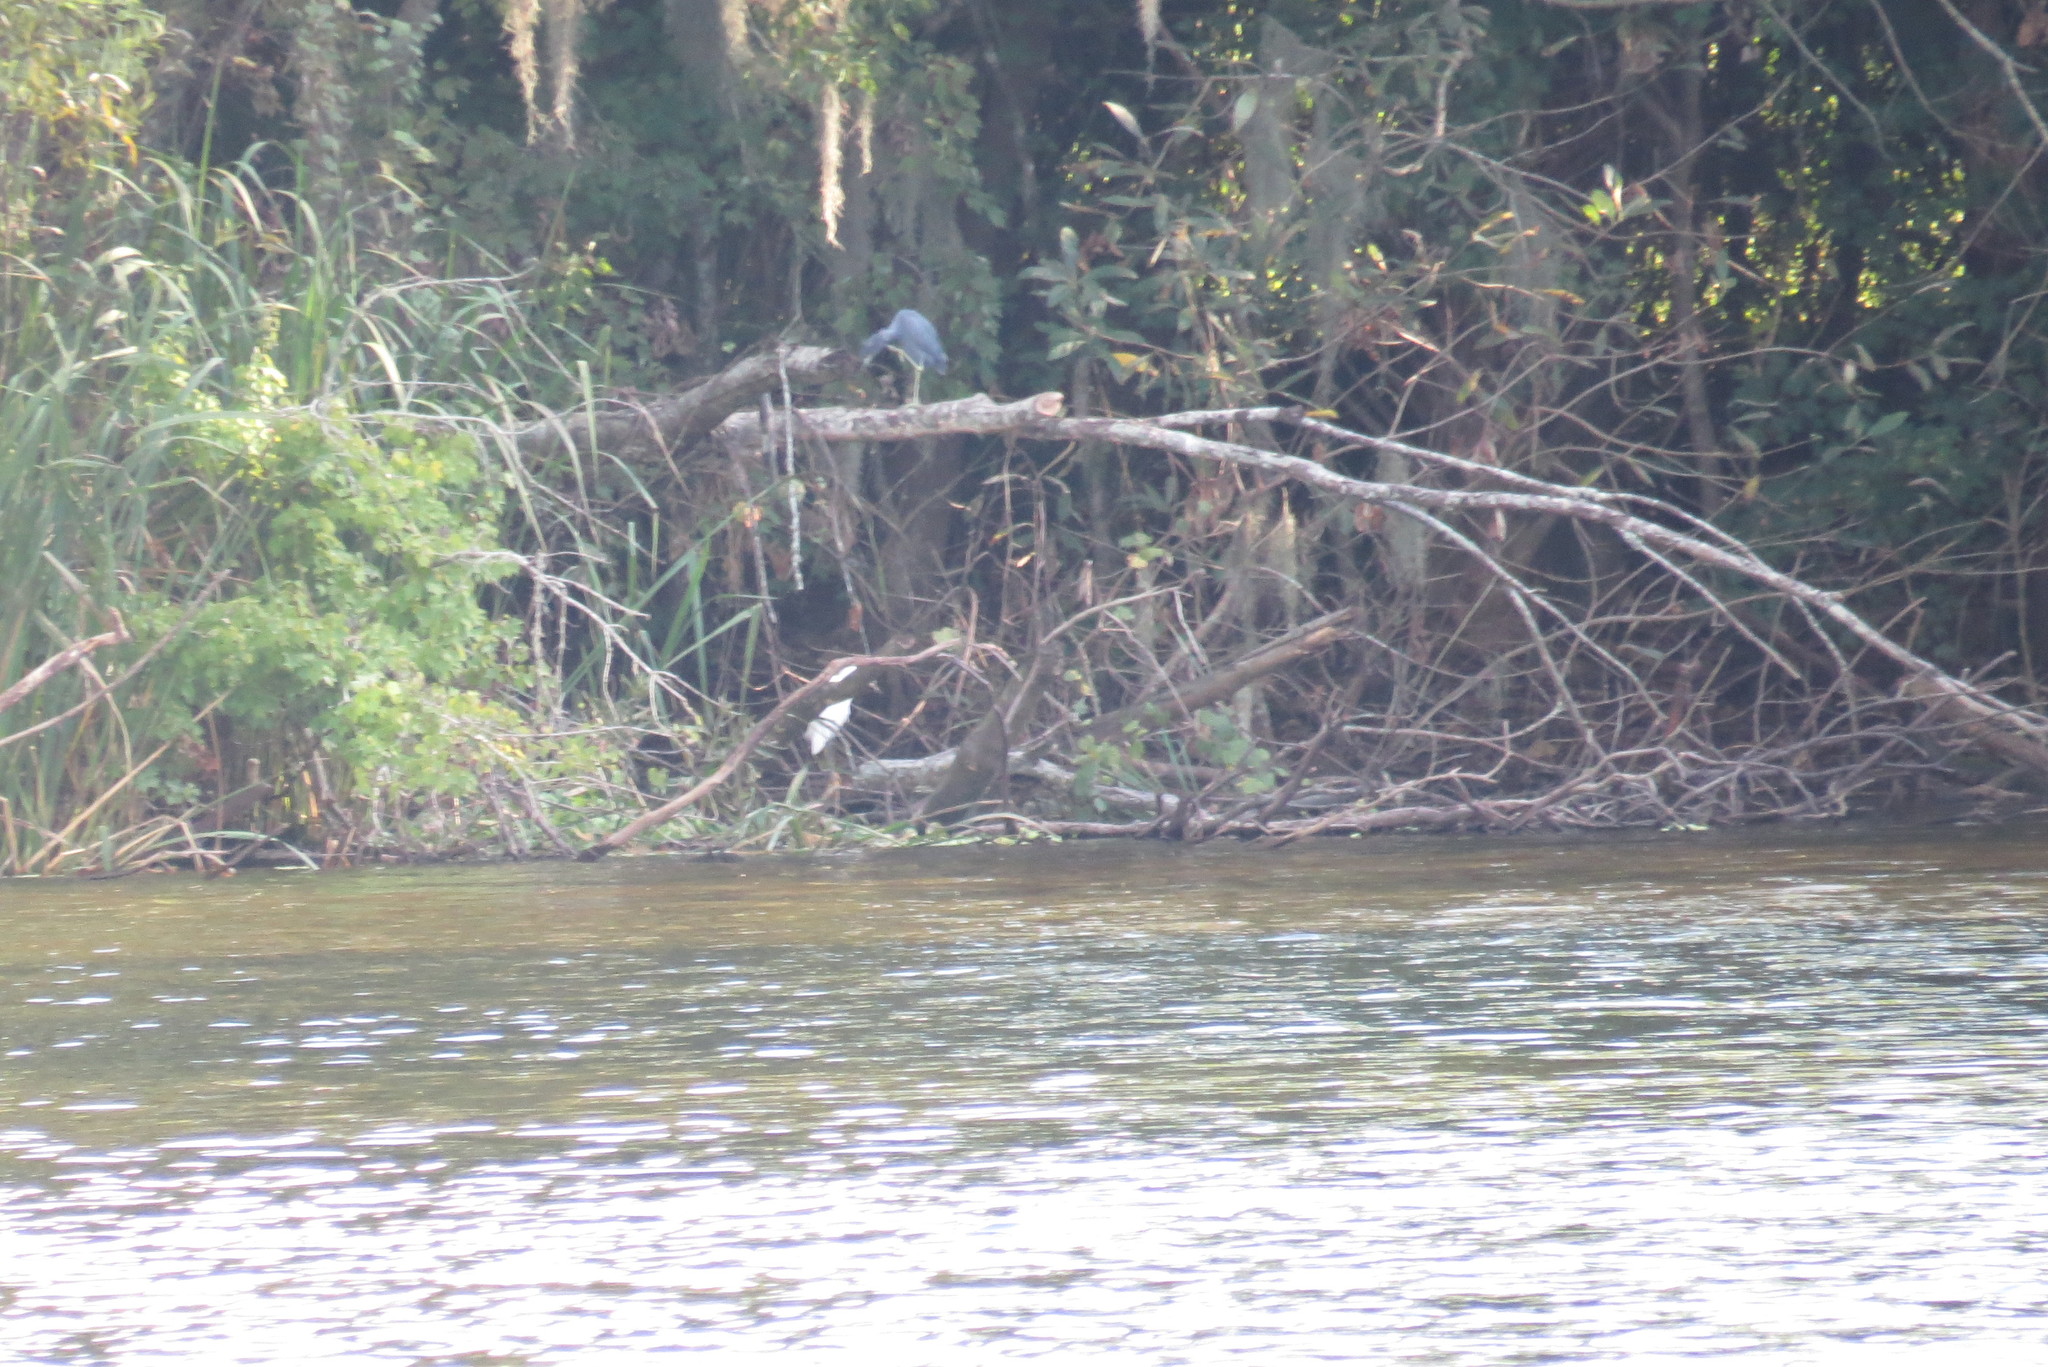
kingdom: Animalia
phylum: Chordata
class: Aves
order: Pelecaniformes
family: Ardeidae
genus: Egretta
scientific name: Egretta caerulea
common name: Little blue heron
